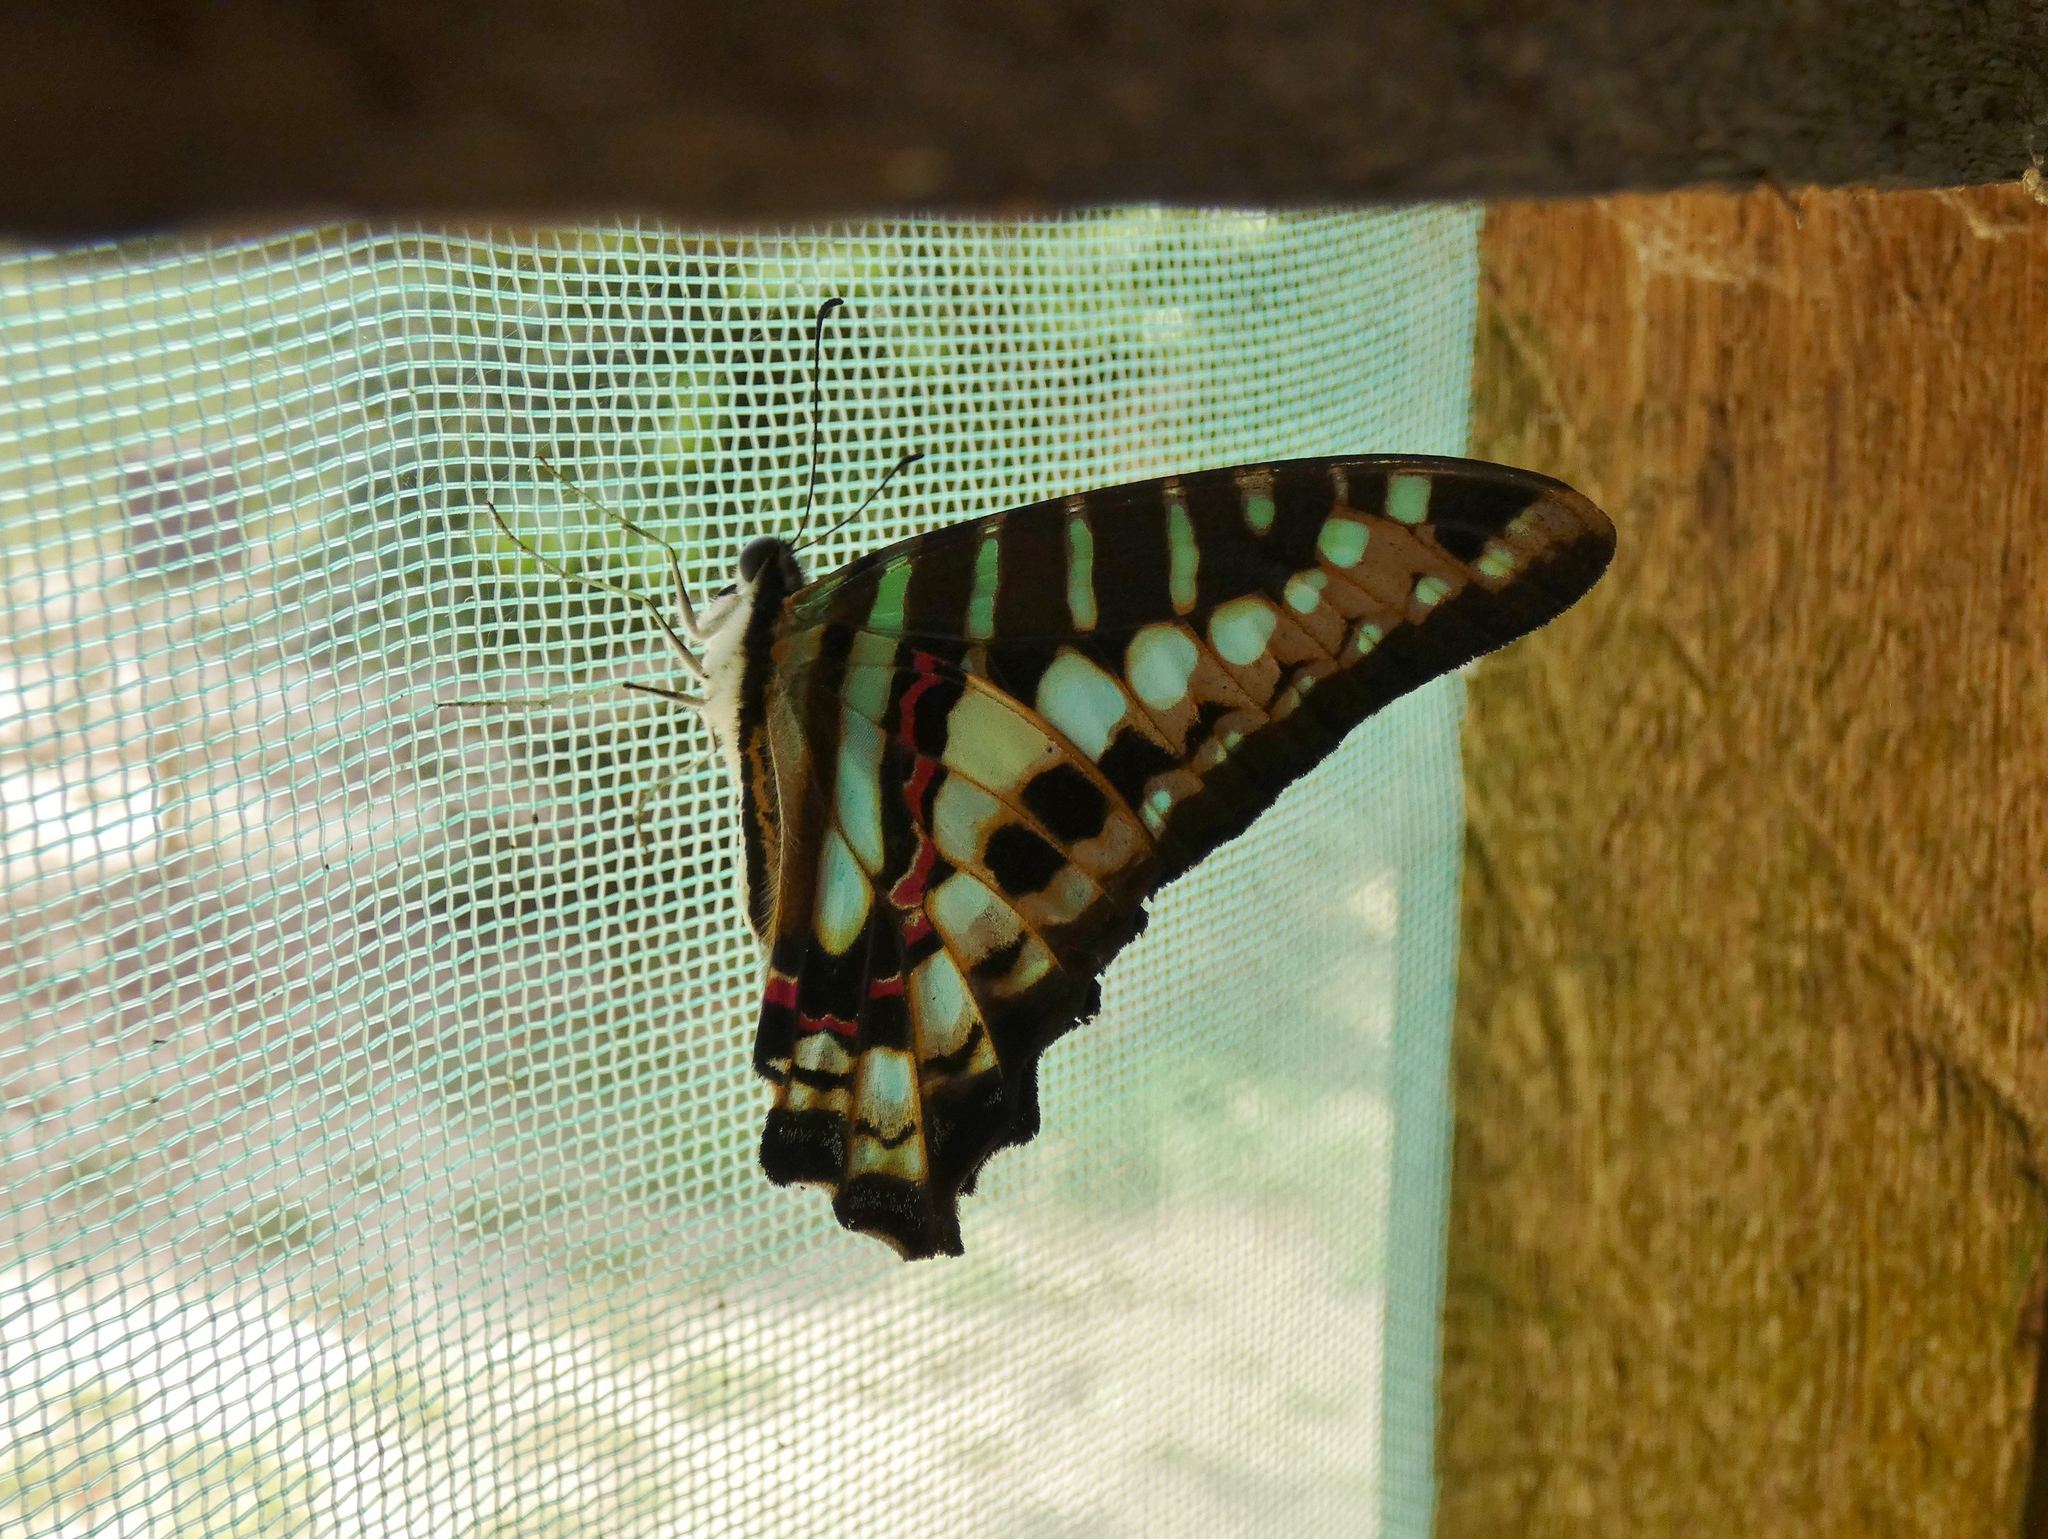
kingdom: Animalia
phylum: Arthropoda
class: Insecta
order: Lepidoptera
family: Papilionidae
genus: Graphium
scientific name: Graphium policenes
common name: Common swordtail
